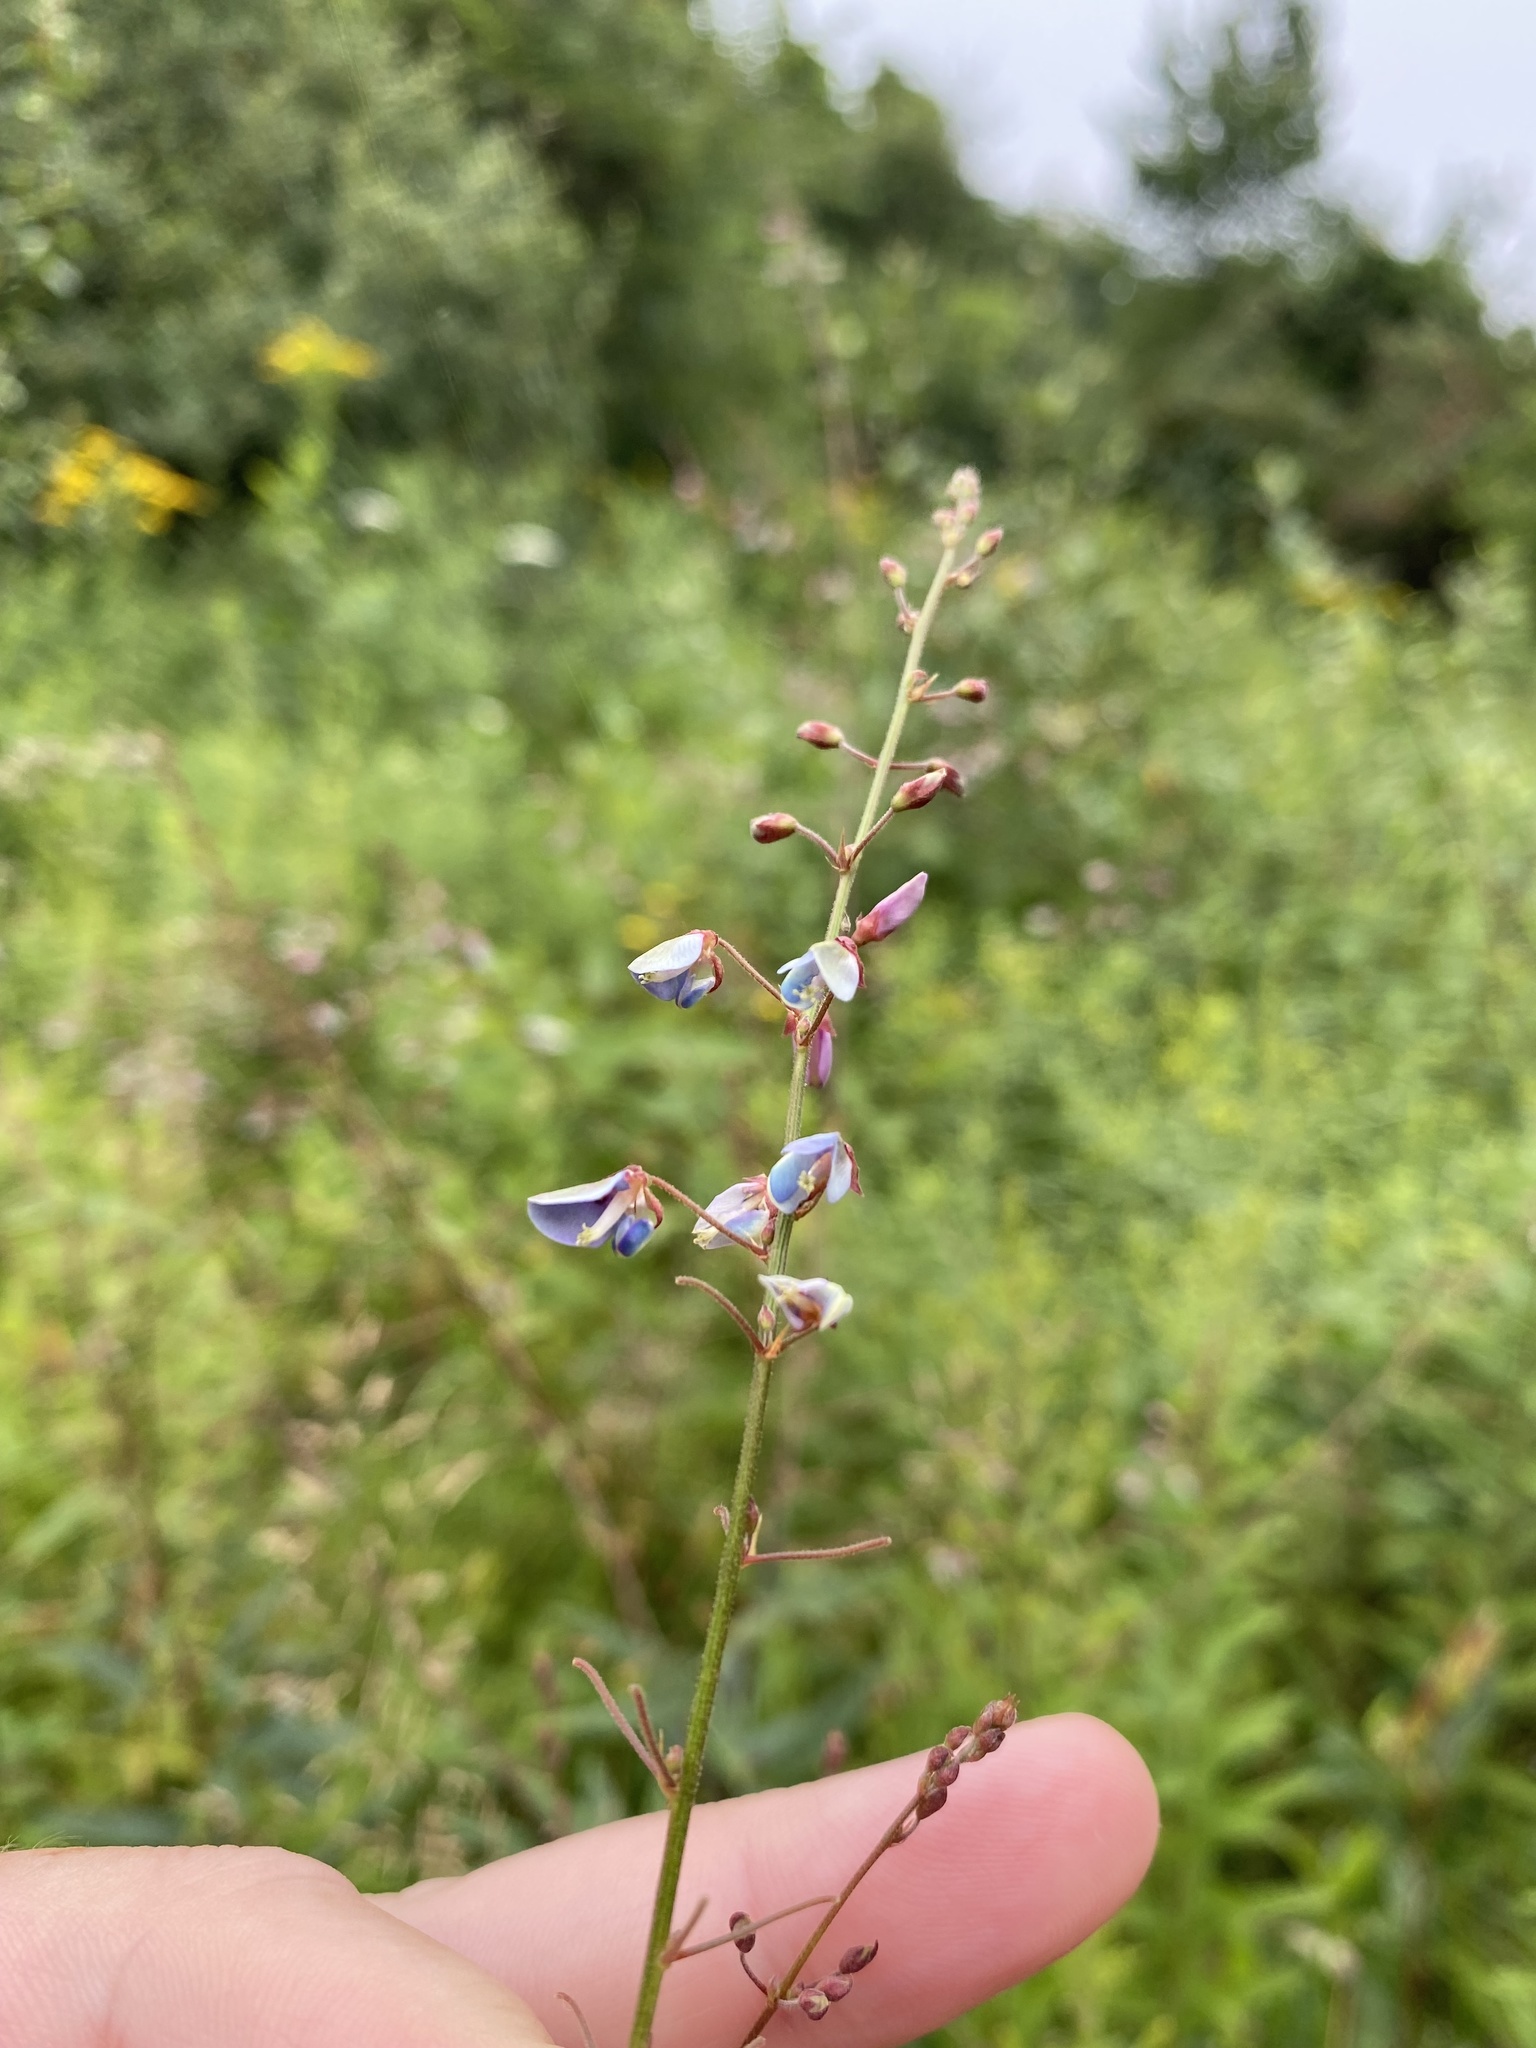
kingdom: Plantae
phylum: Tracheophyta
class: Magnoliopsida
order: Fabales
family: Fabaceae
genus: Desmodium
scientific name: Desmodium paniculatum
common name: Panicled tick-clover
